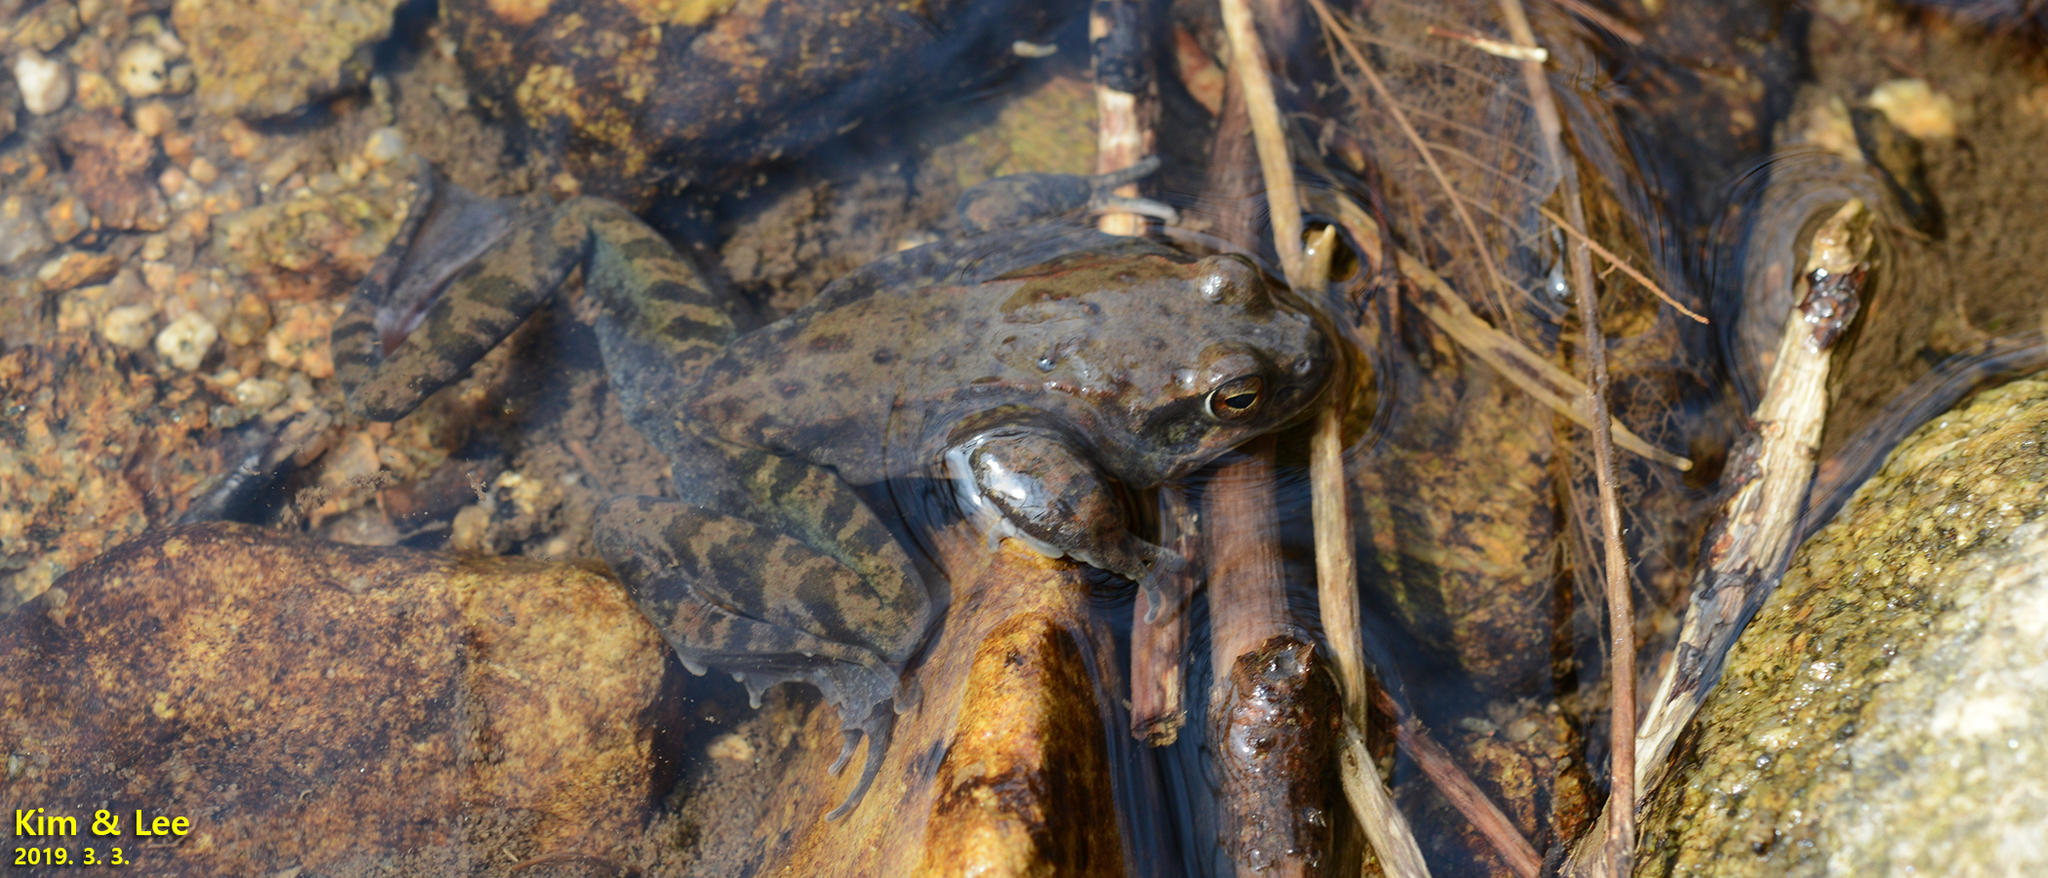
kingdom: Animalia
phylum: Chordata
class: Amphibia
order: Anura
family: Ranidae
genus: Rana
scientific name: Rana dybowskii
